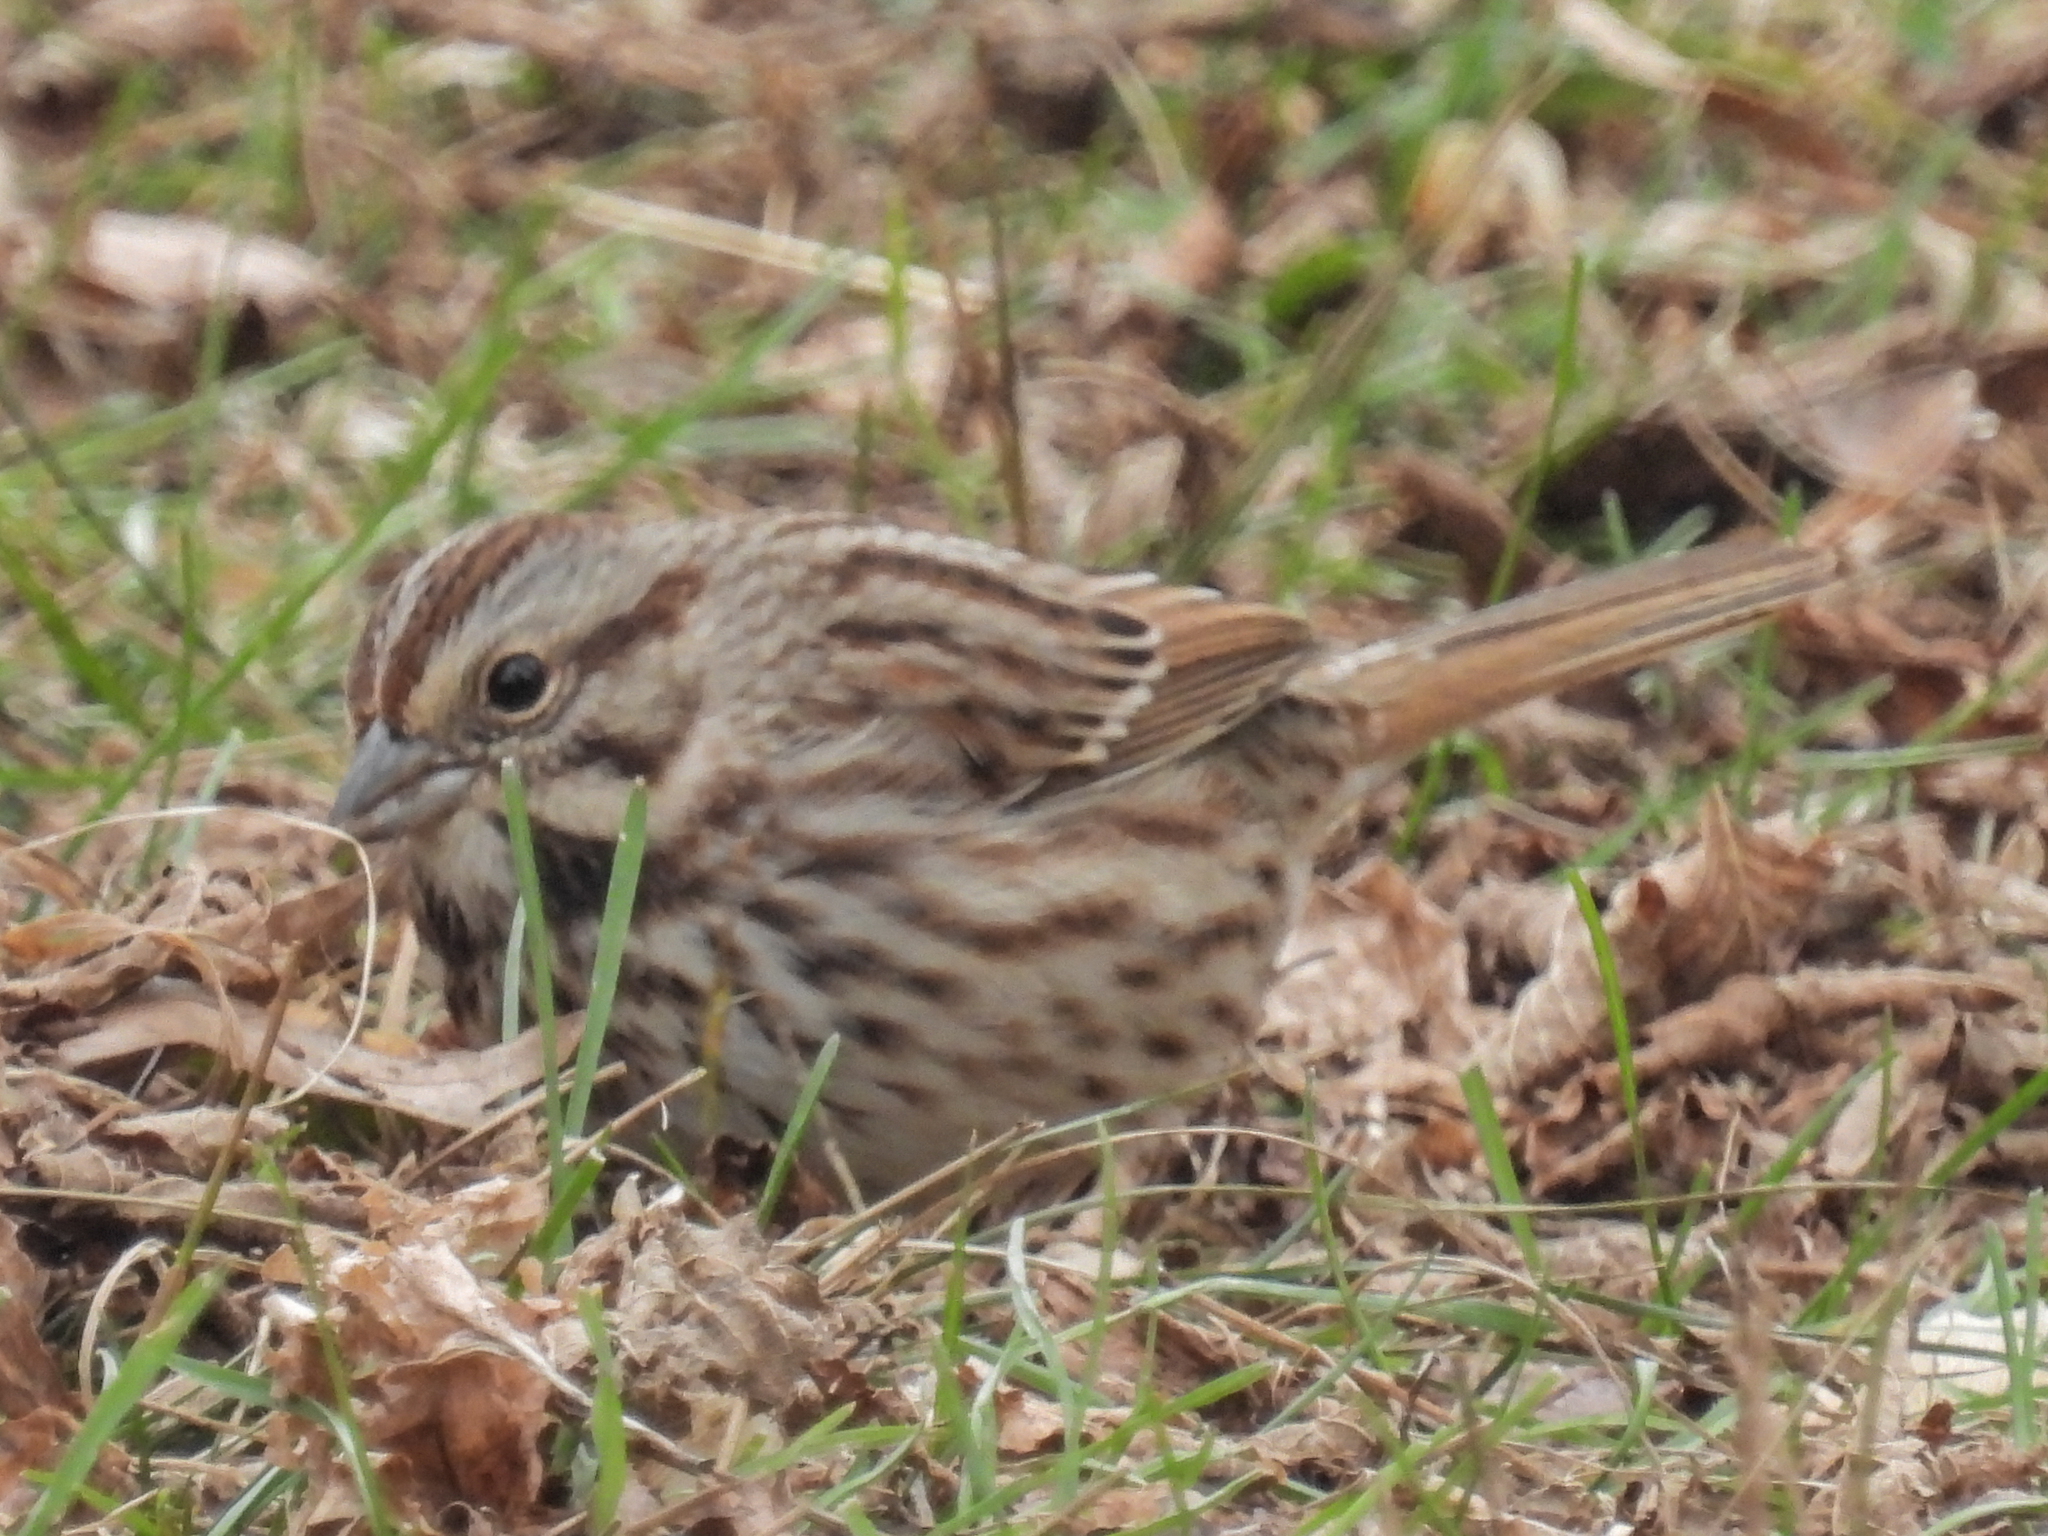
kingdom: Animalia
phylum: Chordata
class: Aves
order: Passeriformes
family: Passerellidae
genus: Melospiza
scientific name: Melospiza melodia
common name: Song sparrow
